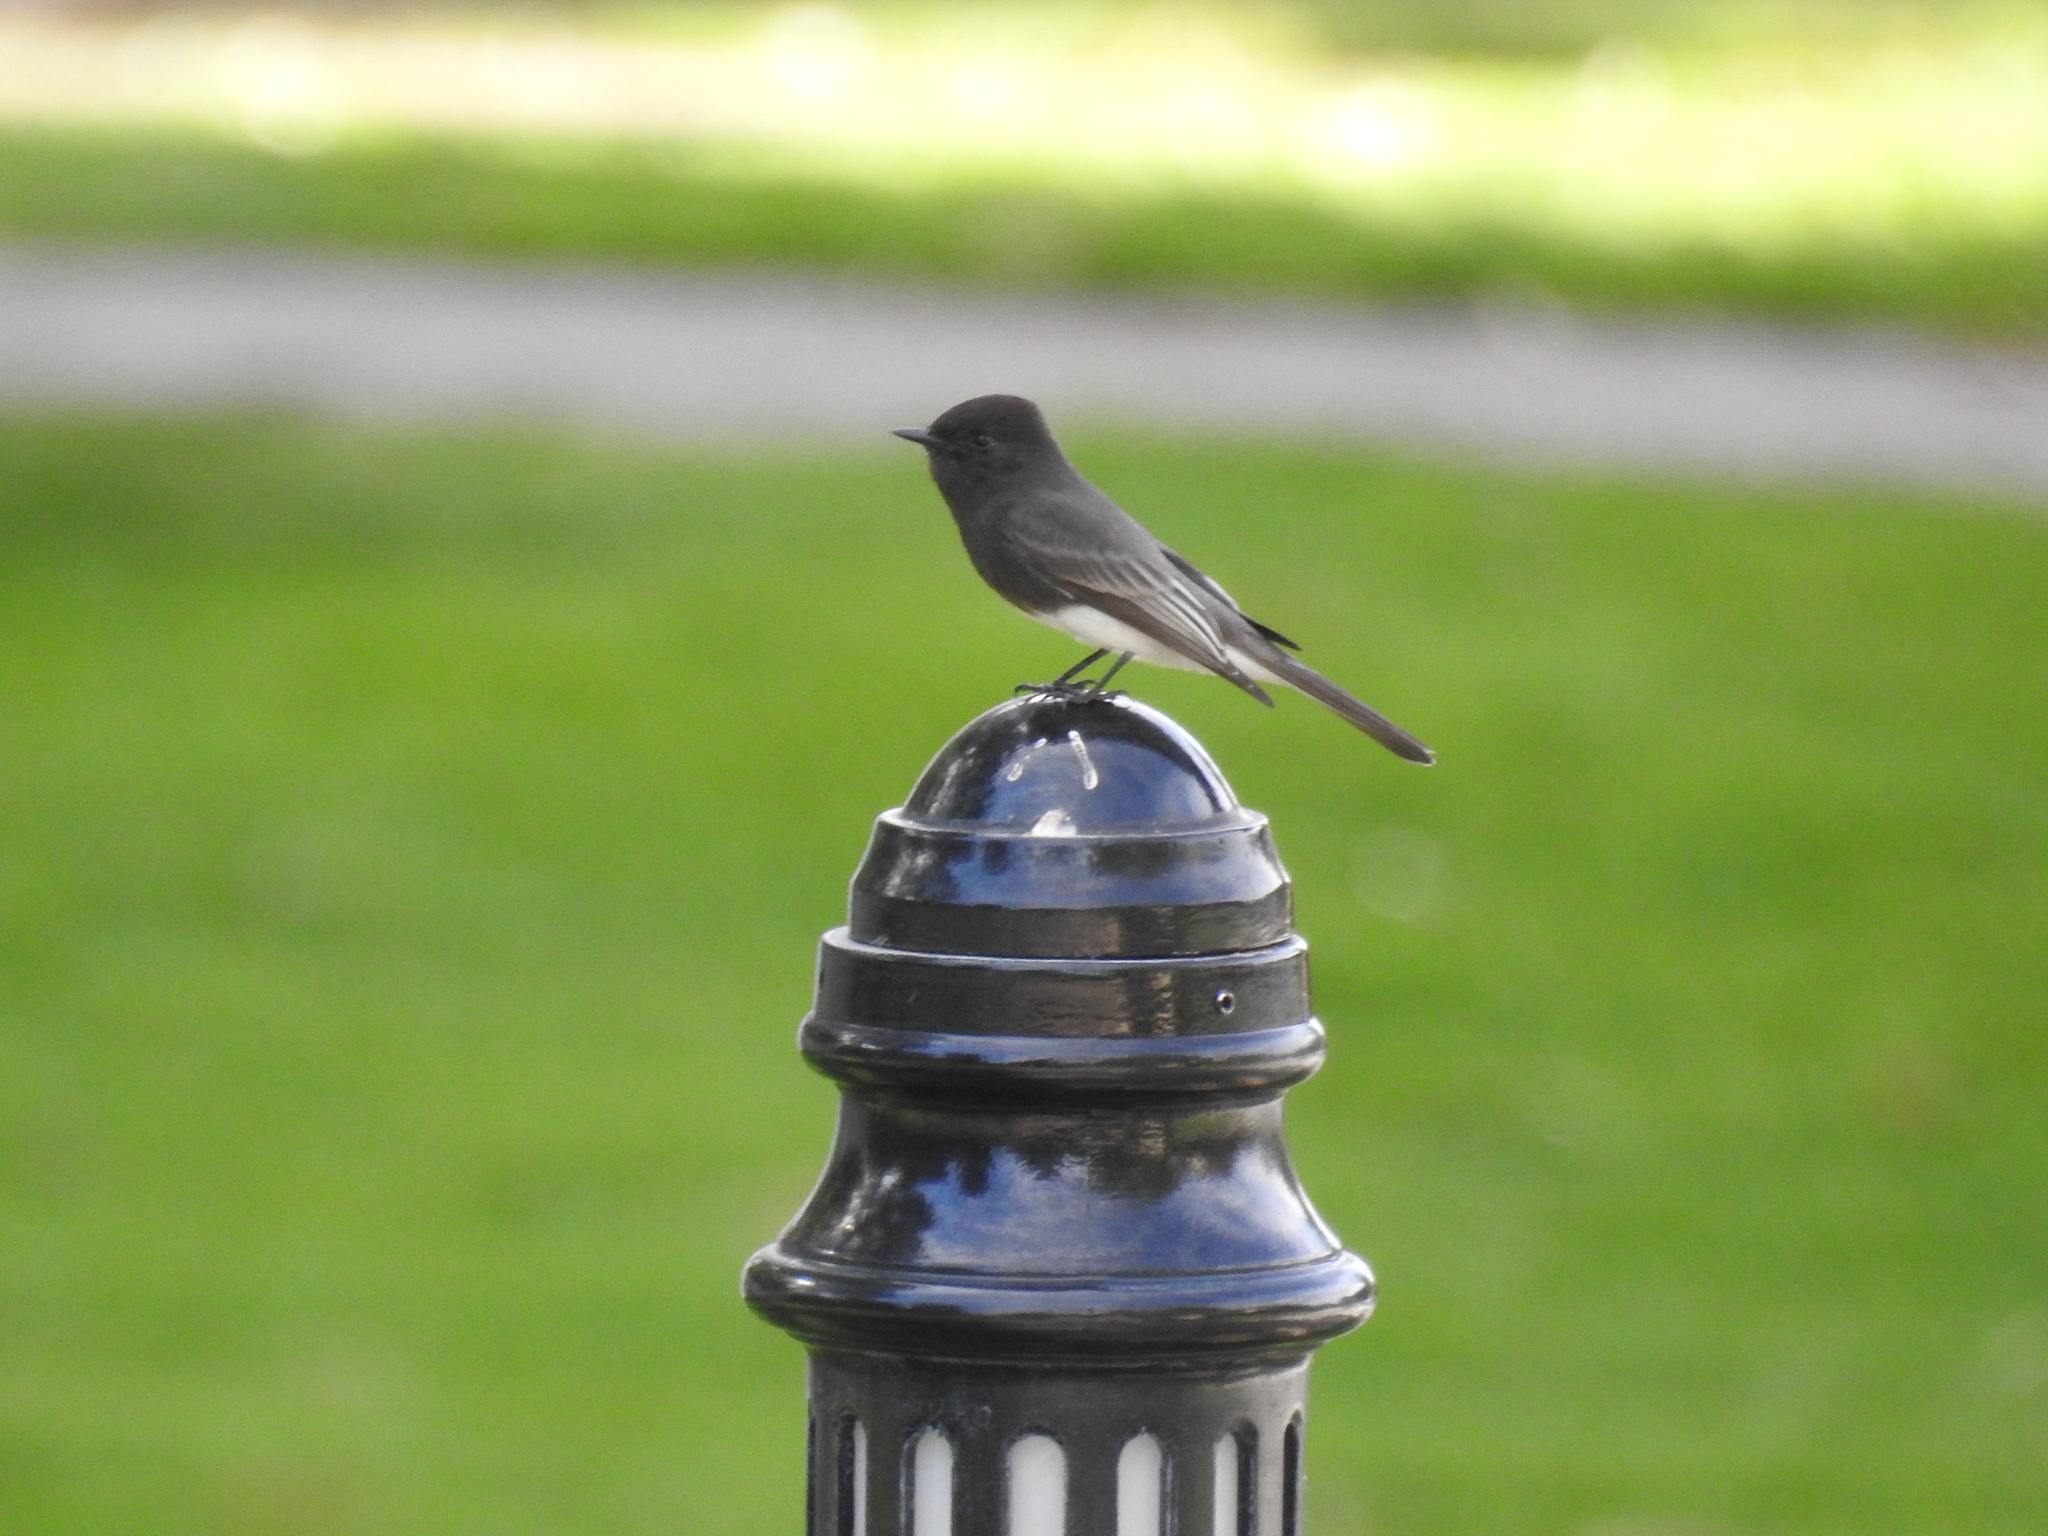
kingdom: Animalia
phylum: Chordata
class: Aves
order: Passeriformes
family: Tyrannidae
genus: Sayornis
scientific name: Sayornis nigricans
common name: Black phoebe
